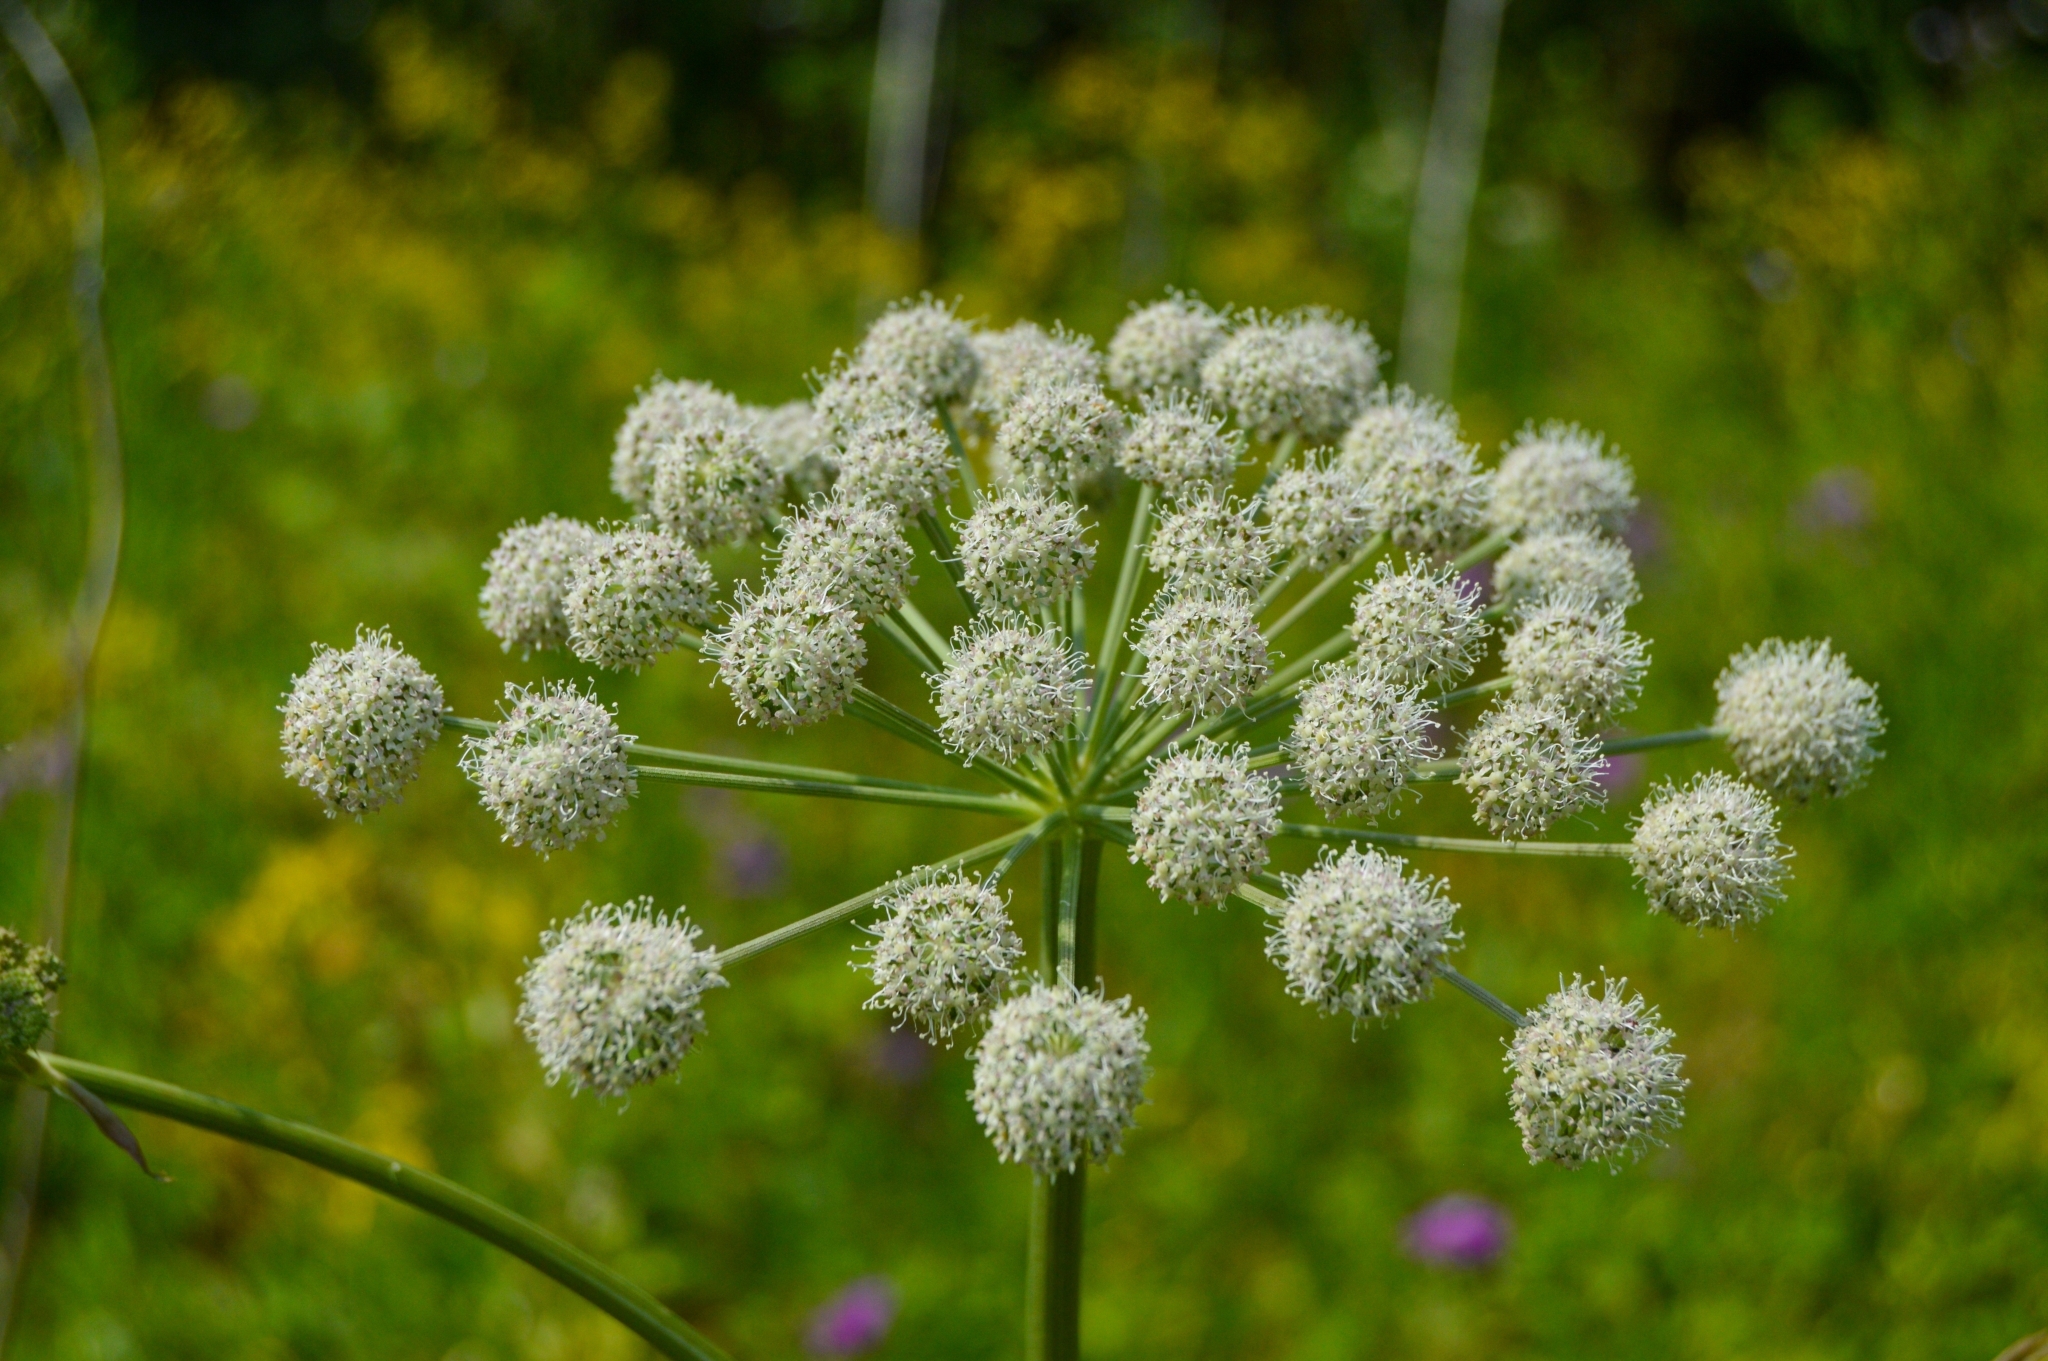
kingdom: Plantae
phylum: Tracheophyta
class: Magnoliopsida
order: Apiales
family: Apiaceae
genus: Angelica
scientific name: Angelica sylvestris
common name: Wild angelica
